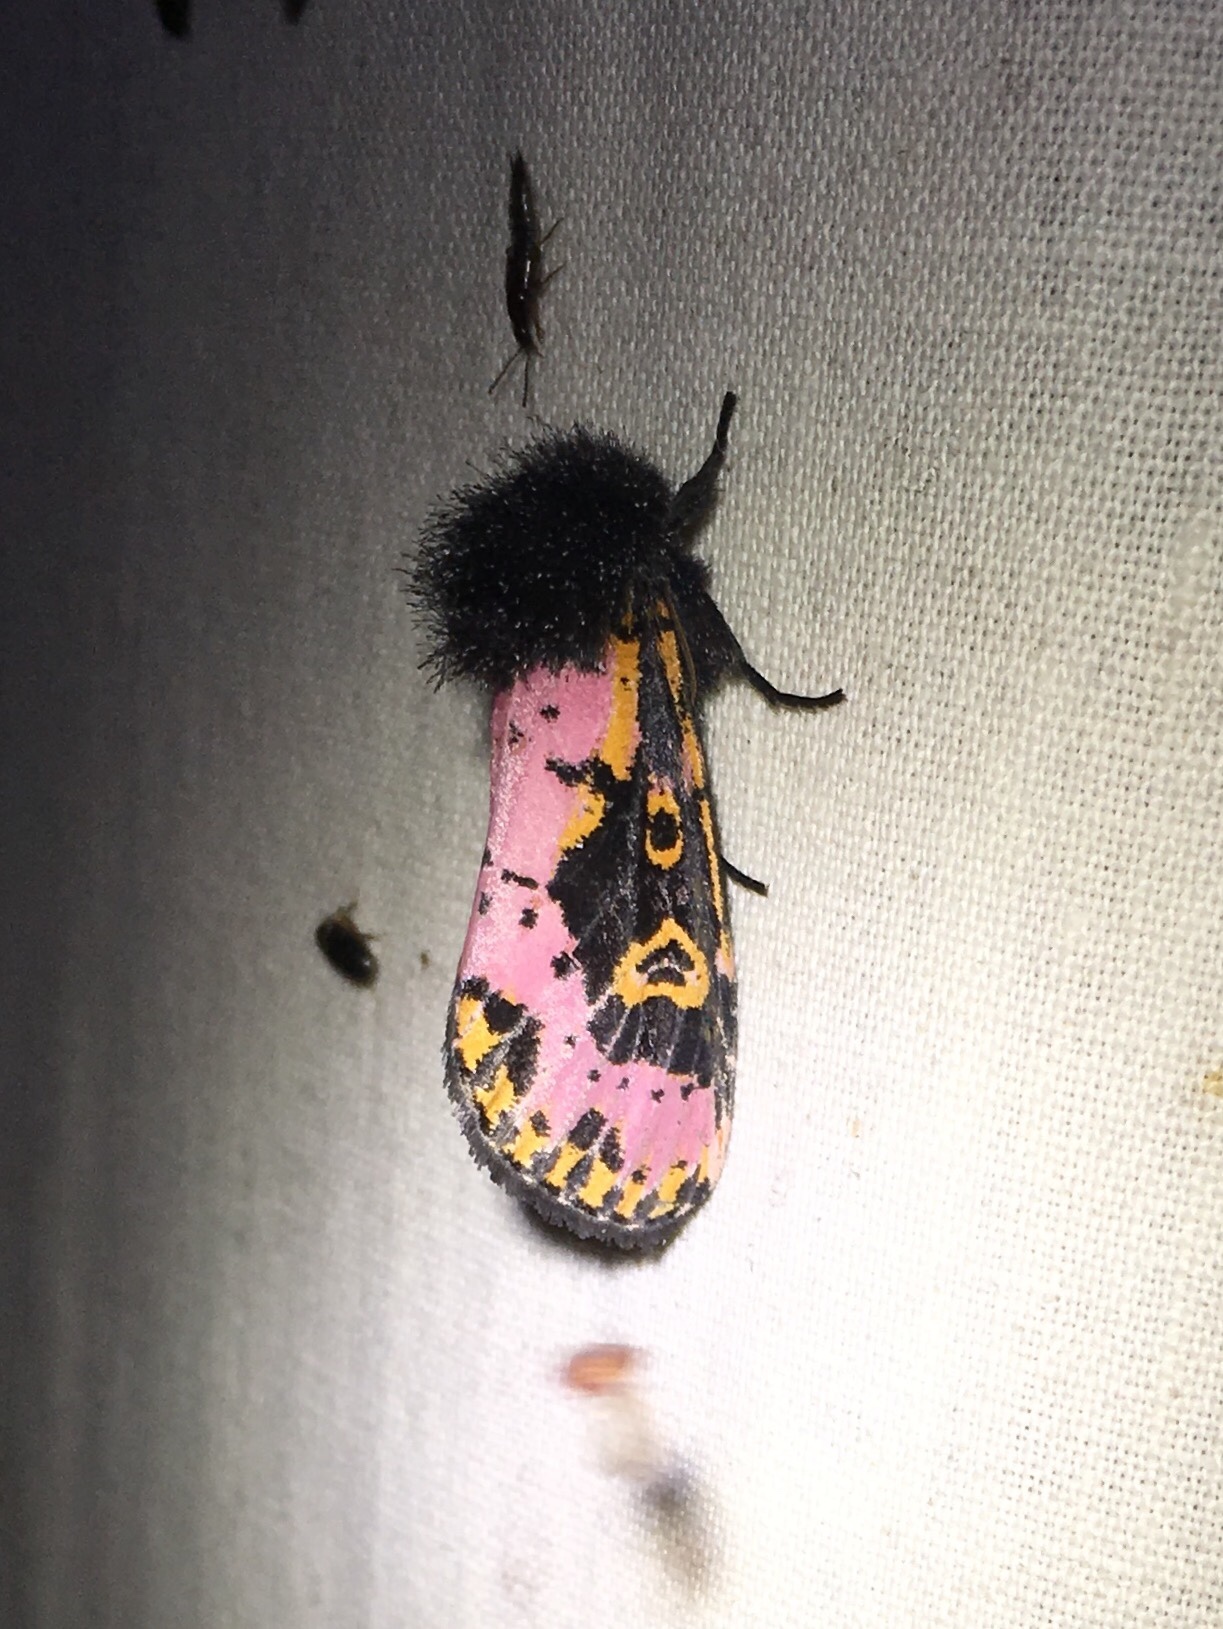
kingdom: Animalia
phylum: Arthropoda
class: Insecta
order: Lepidoptera
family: Noctuidae
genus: Xanthopastis
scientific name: Xanthopastis regnatrix
